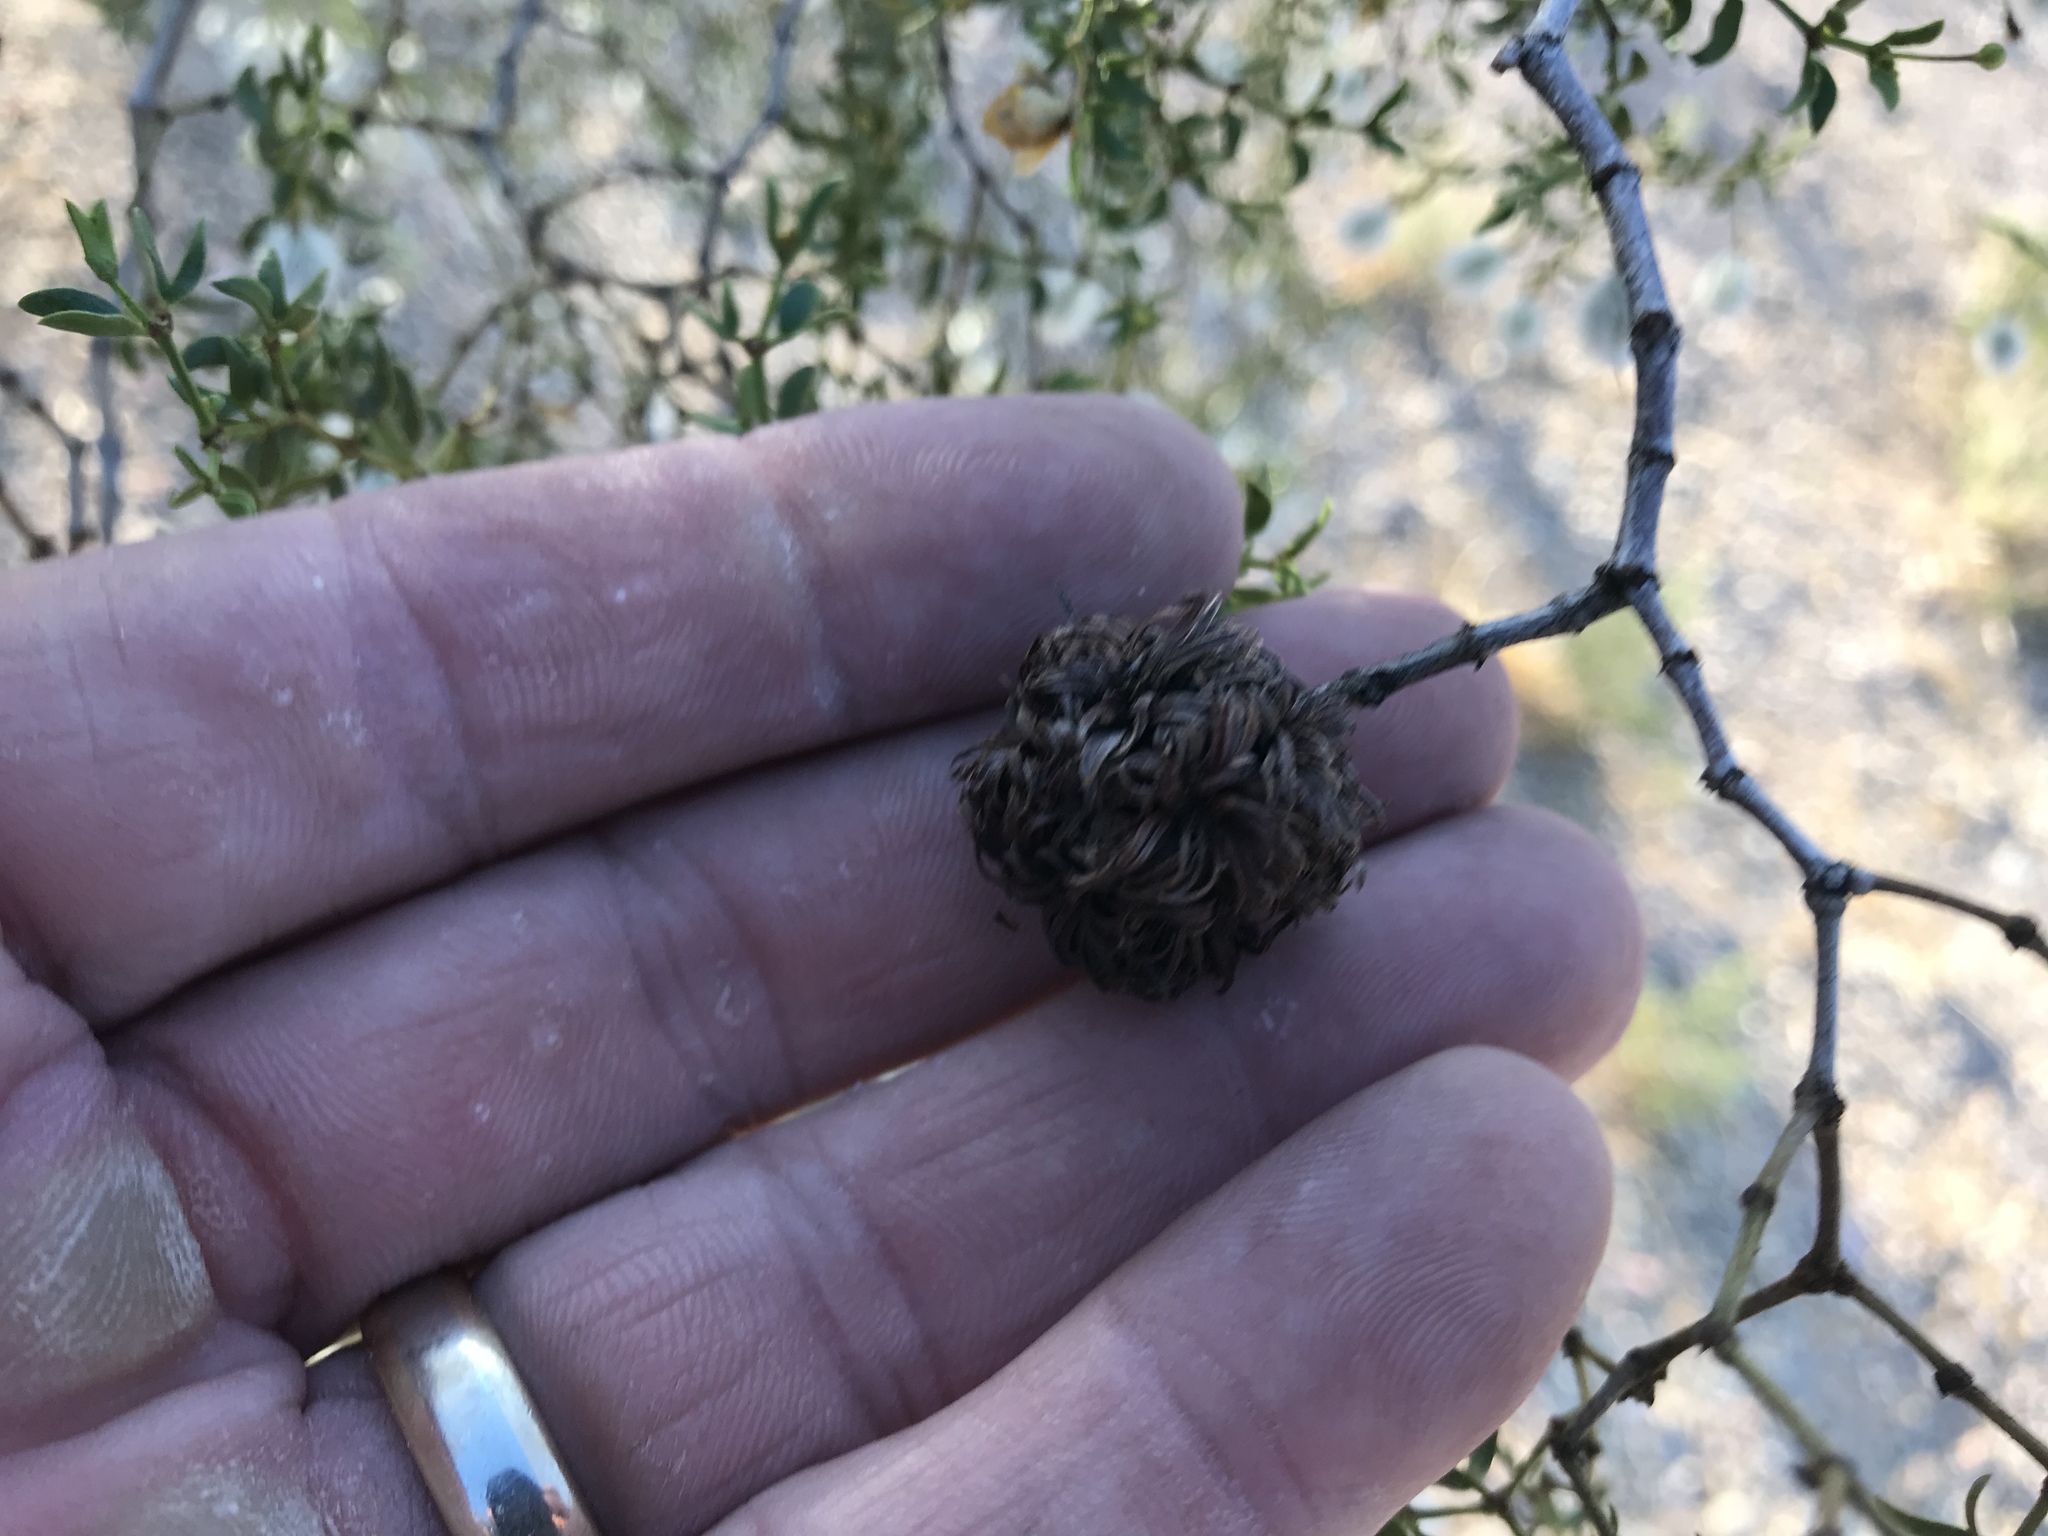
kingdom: Animalia
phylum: Arthropoda
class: Insecta
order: Diptera
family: Cecidomyiidae
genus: Asphondylia
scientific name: Asphondylia auripila
